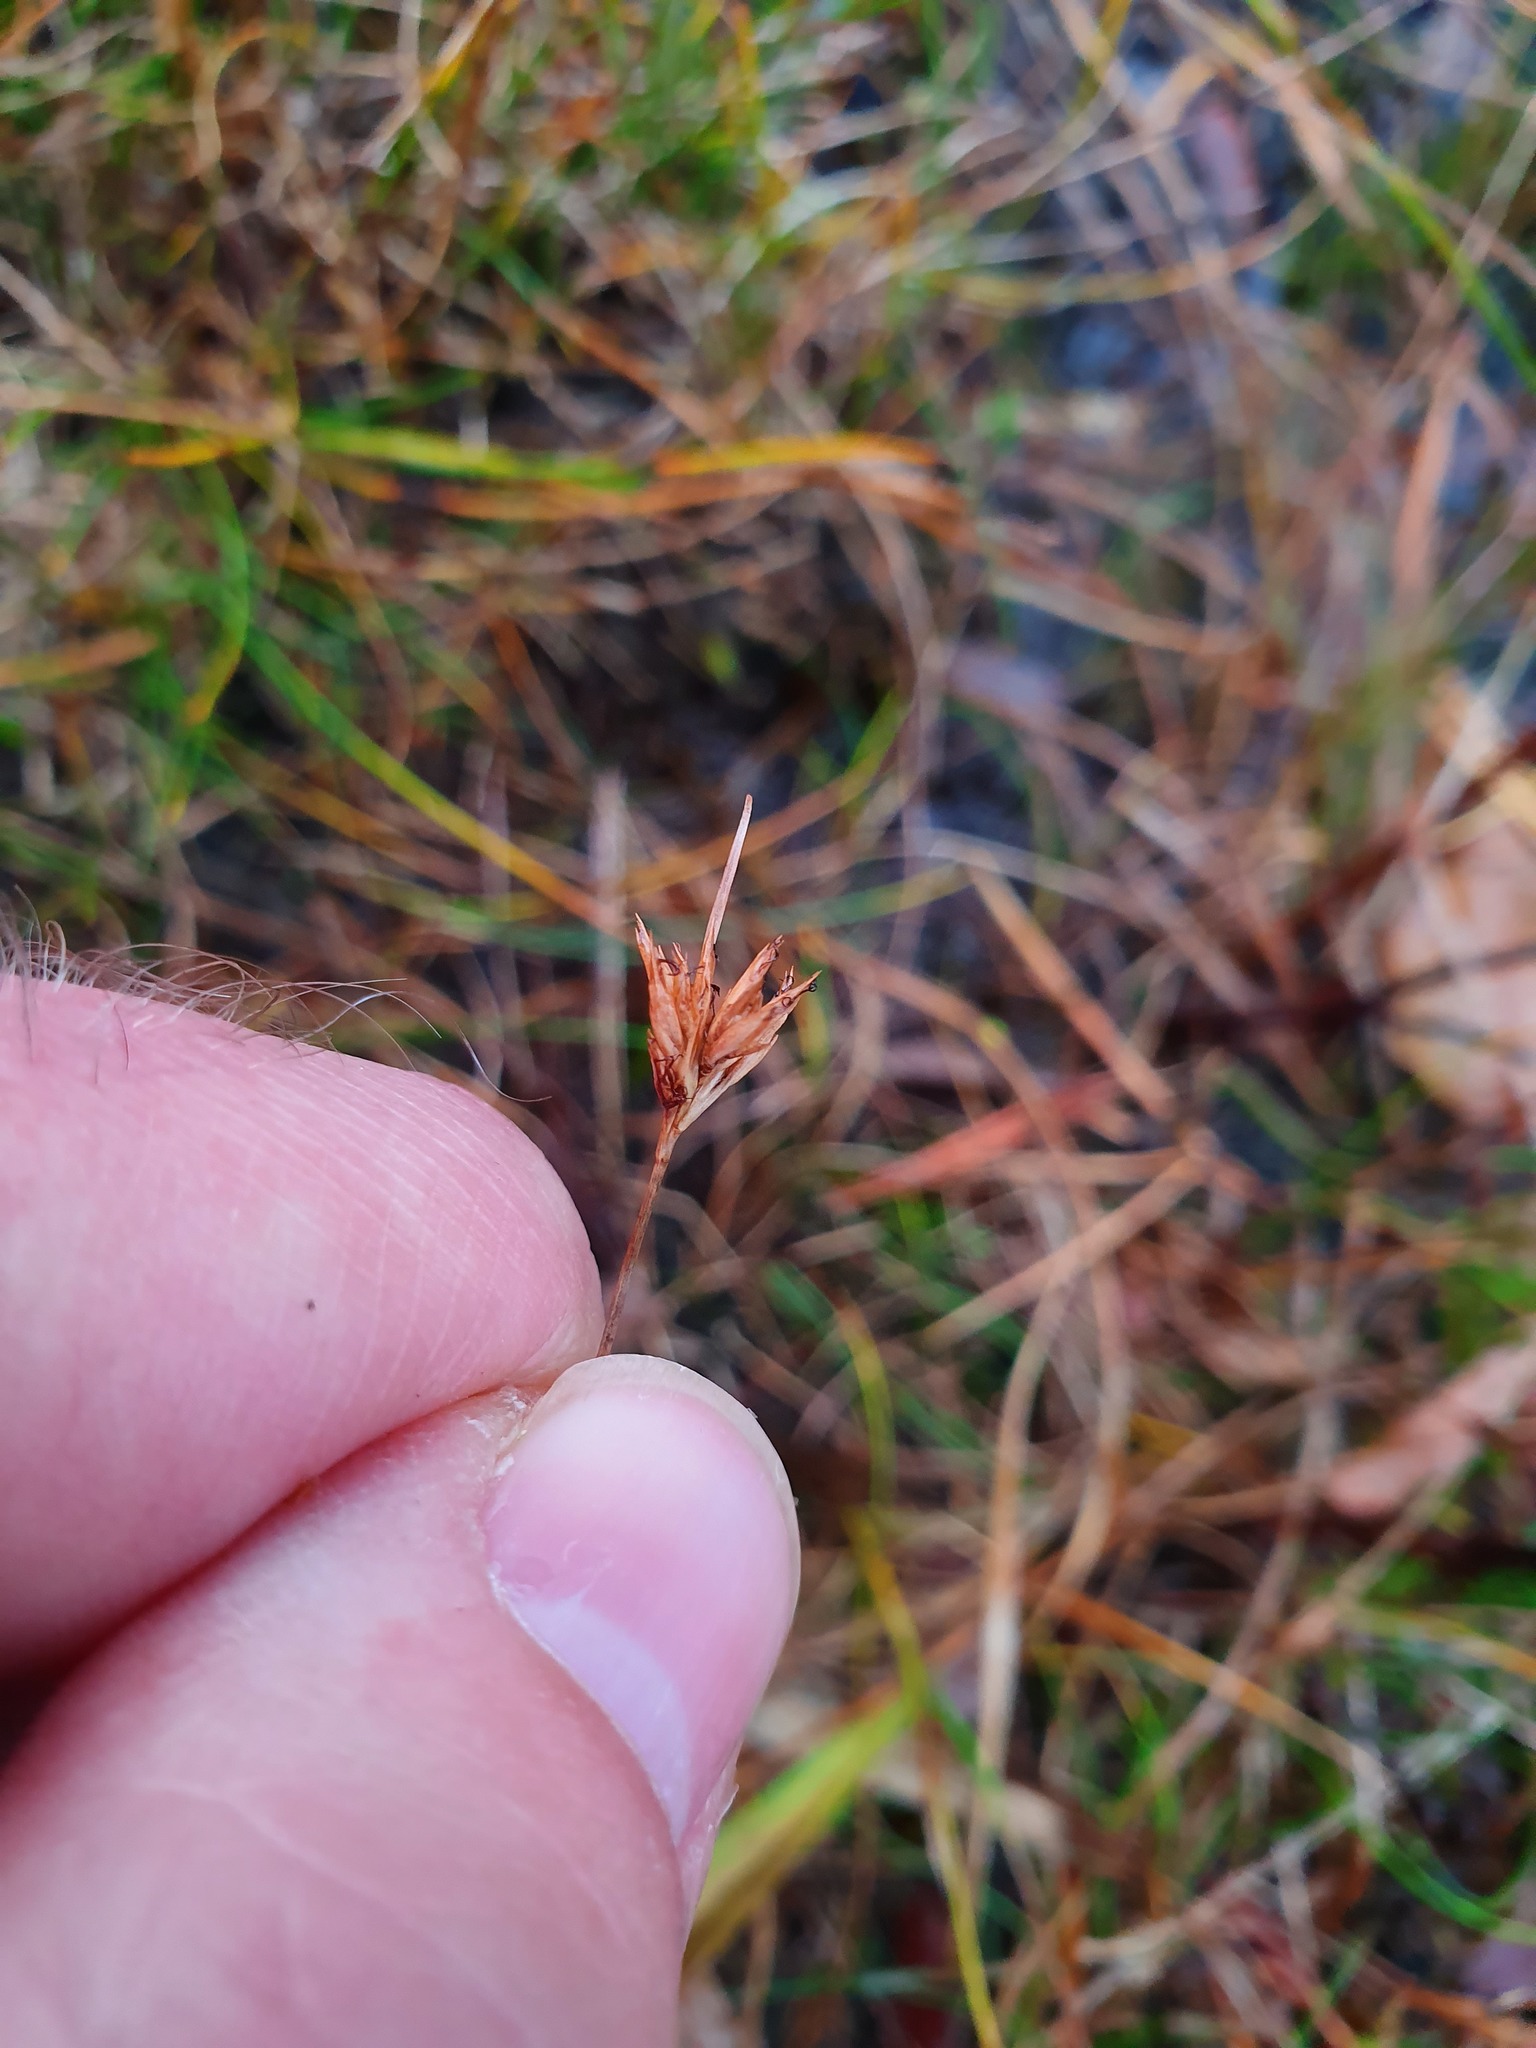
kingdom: Plantae
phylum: Tracheophyta
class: Liliopsida
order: Poales
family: Cyperaceae
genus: Rhynchospora
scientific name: Rhynchospora alba
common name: White beak-sedge
